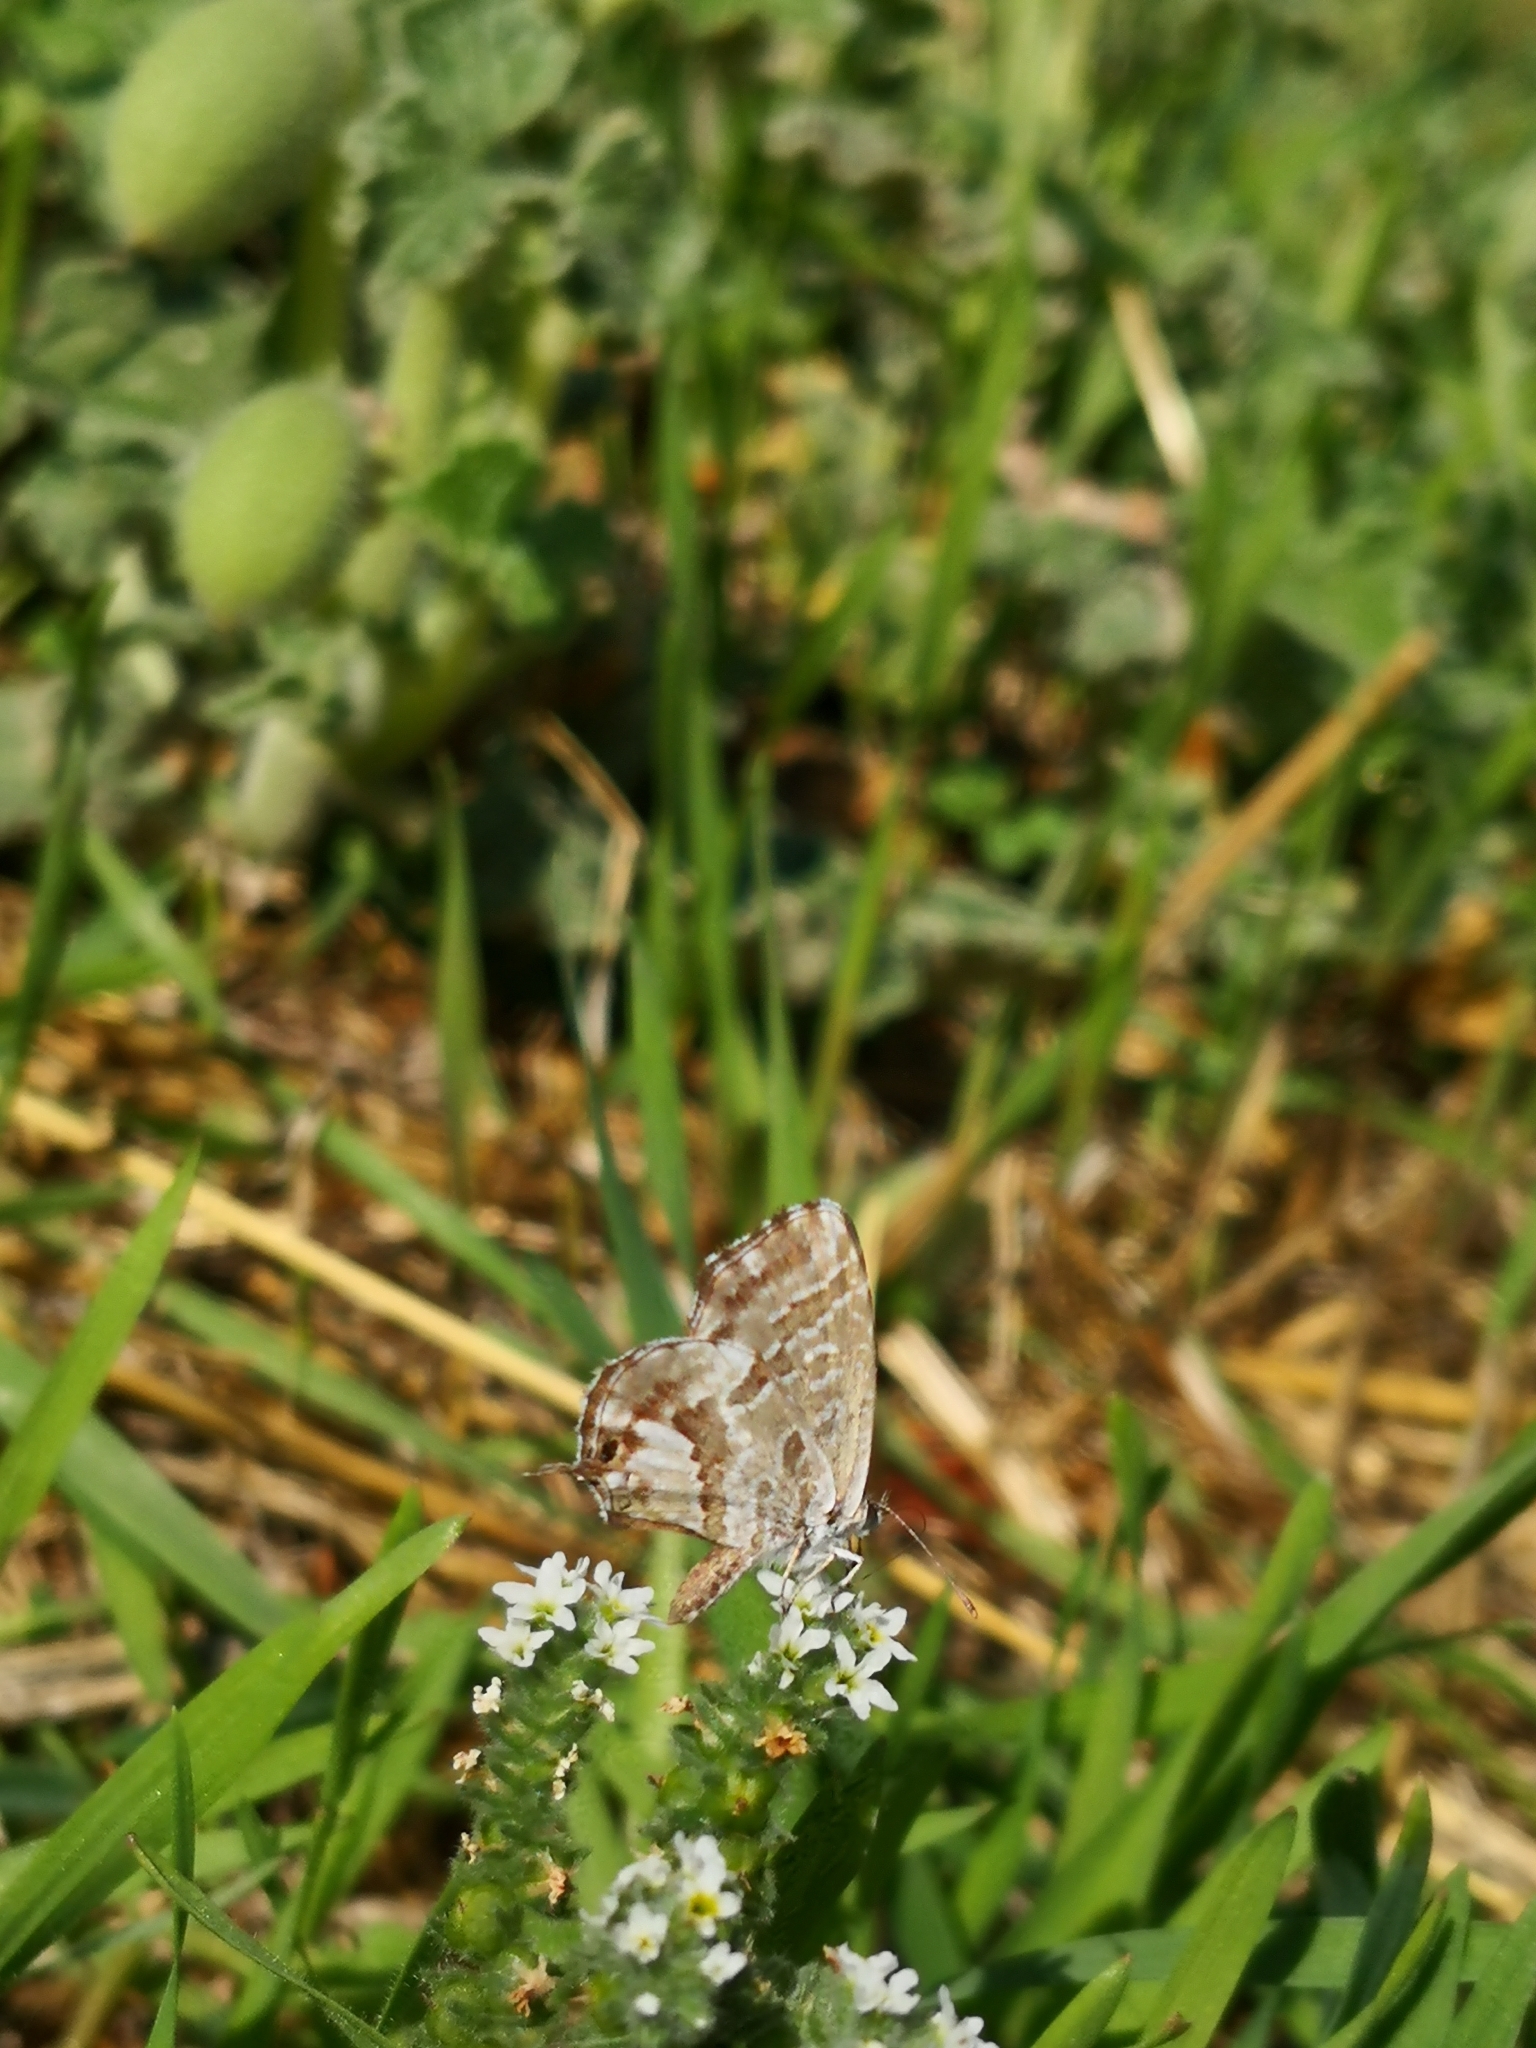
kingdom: Animalia
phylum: Arthropoda
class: Insecta
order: Lepidoptera
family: Lycaenidae
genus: Cacyreus
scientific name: Cacyreus marshalli
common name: Geranium bronze
